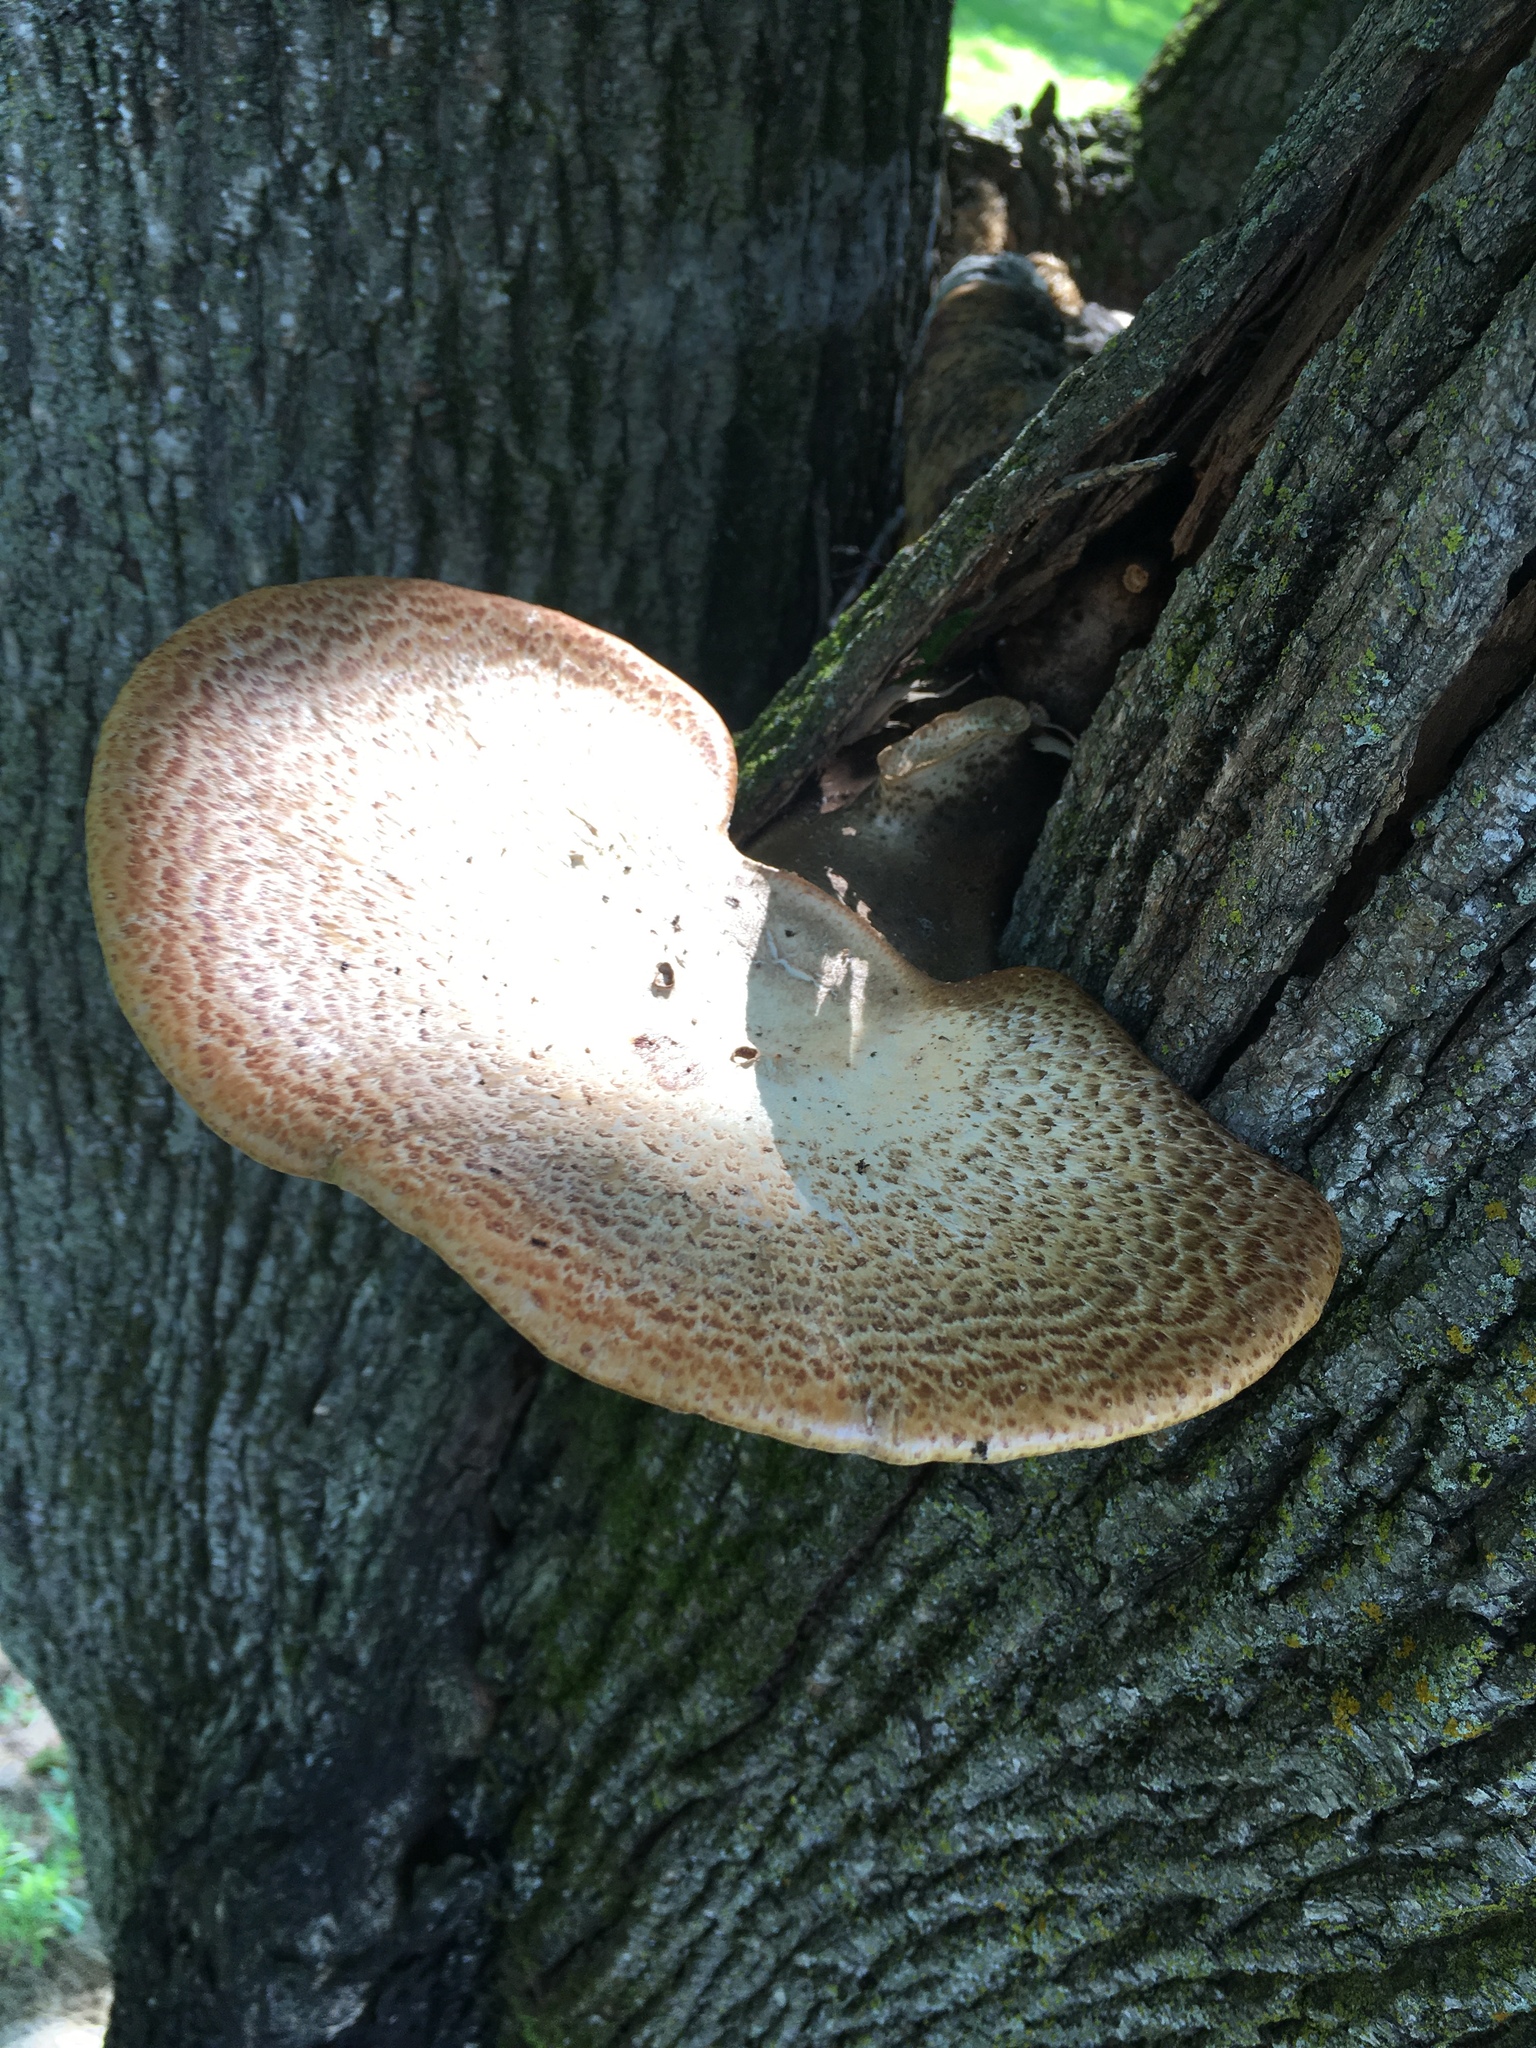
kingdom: Fungi
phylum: Basidiomycota
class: Agaricomycetes
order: Polyporales
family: Polyporaceae
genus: Cerioporus
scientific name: Cerioporus squamosus
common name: Dryad's saddle
